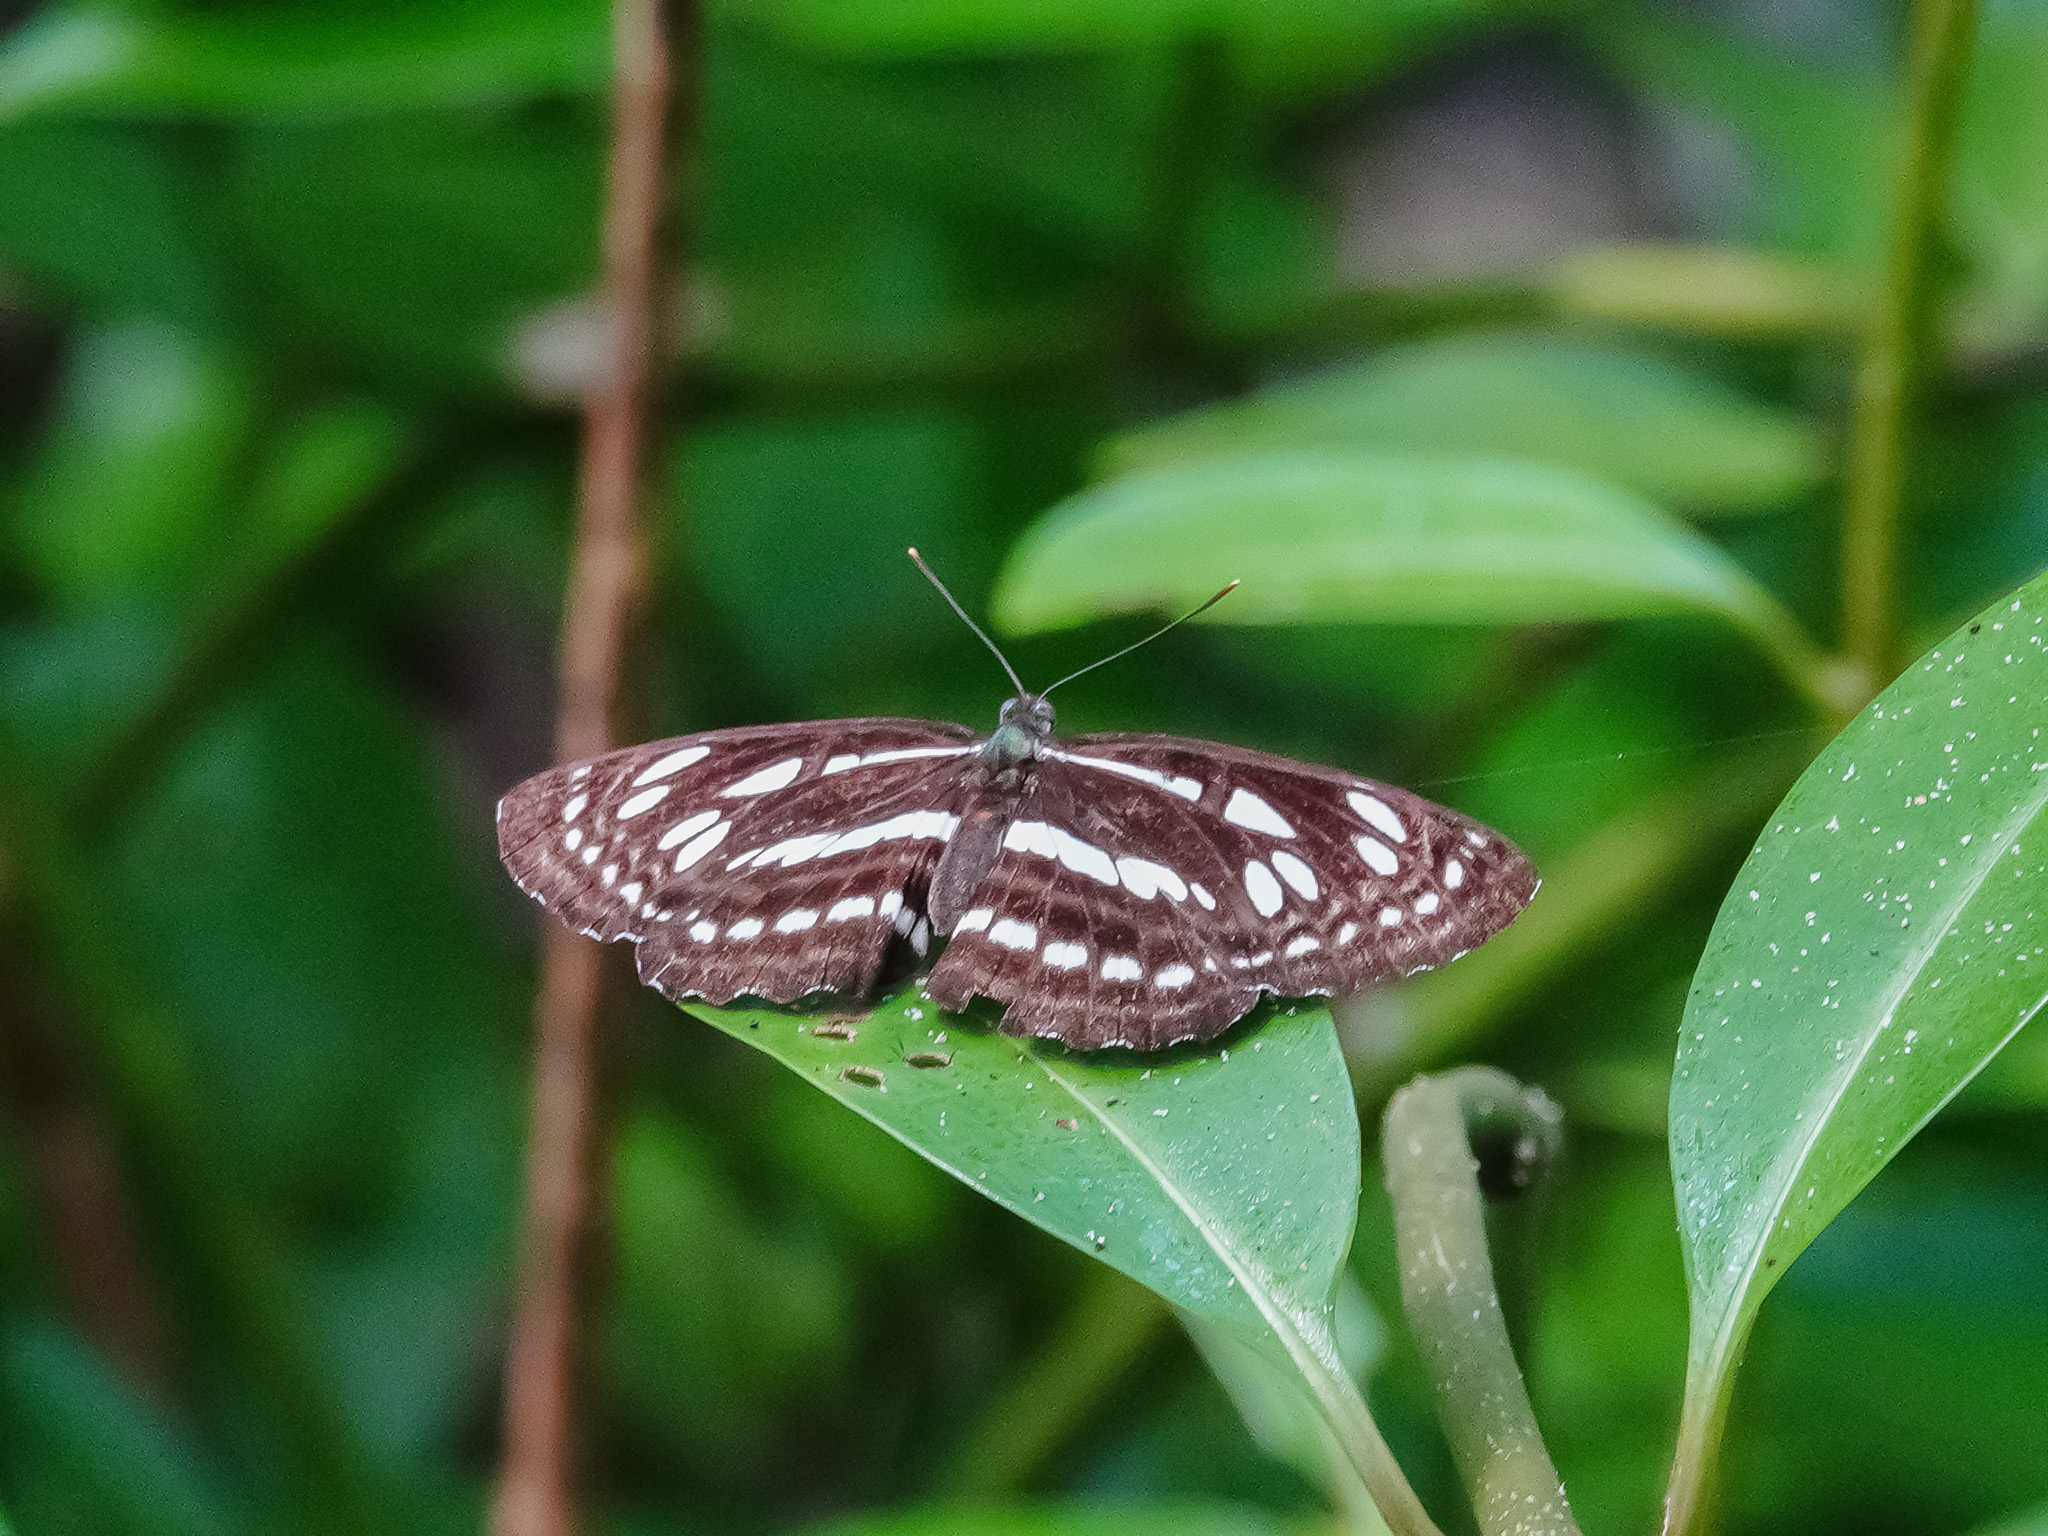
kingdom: Animalia
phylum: Arthropoda
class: Insecta
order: Lepidoptera
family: Nymphalidae
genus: Phaedyma
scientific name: Phaedyma columella
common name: Short banded sailer
